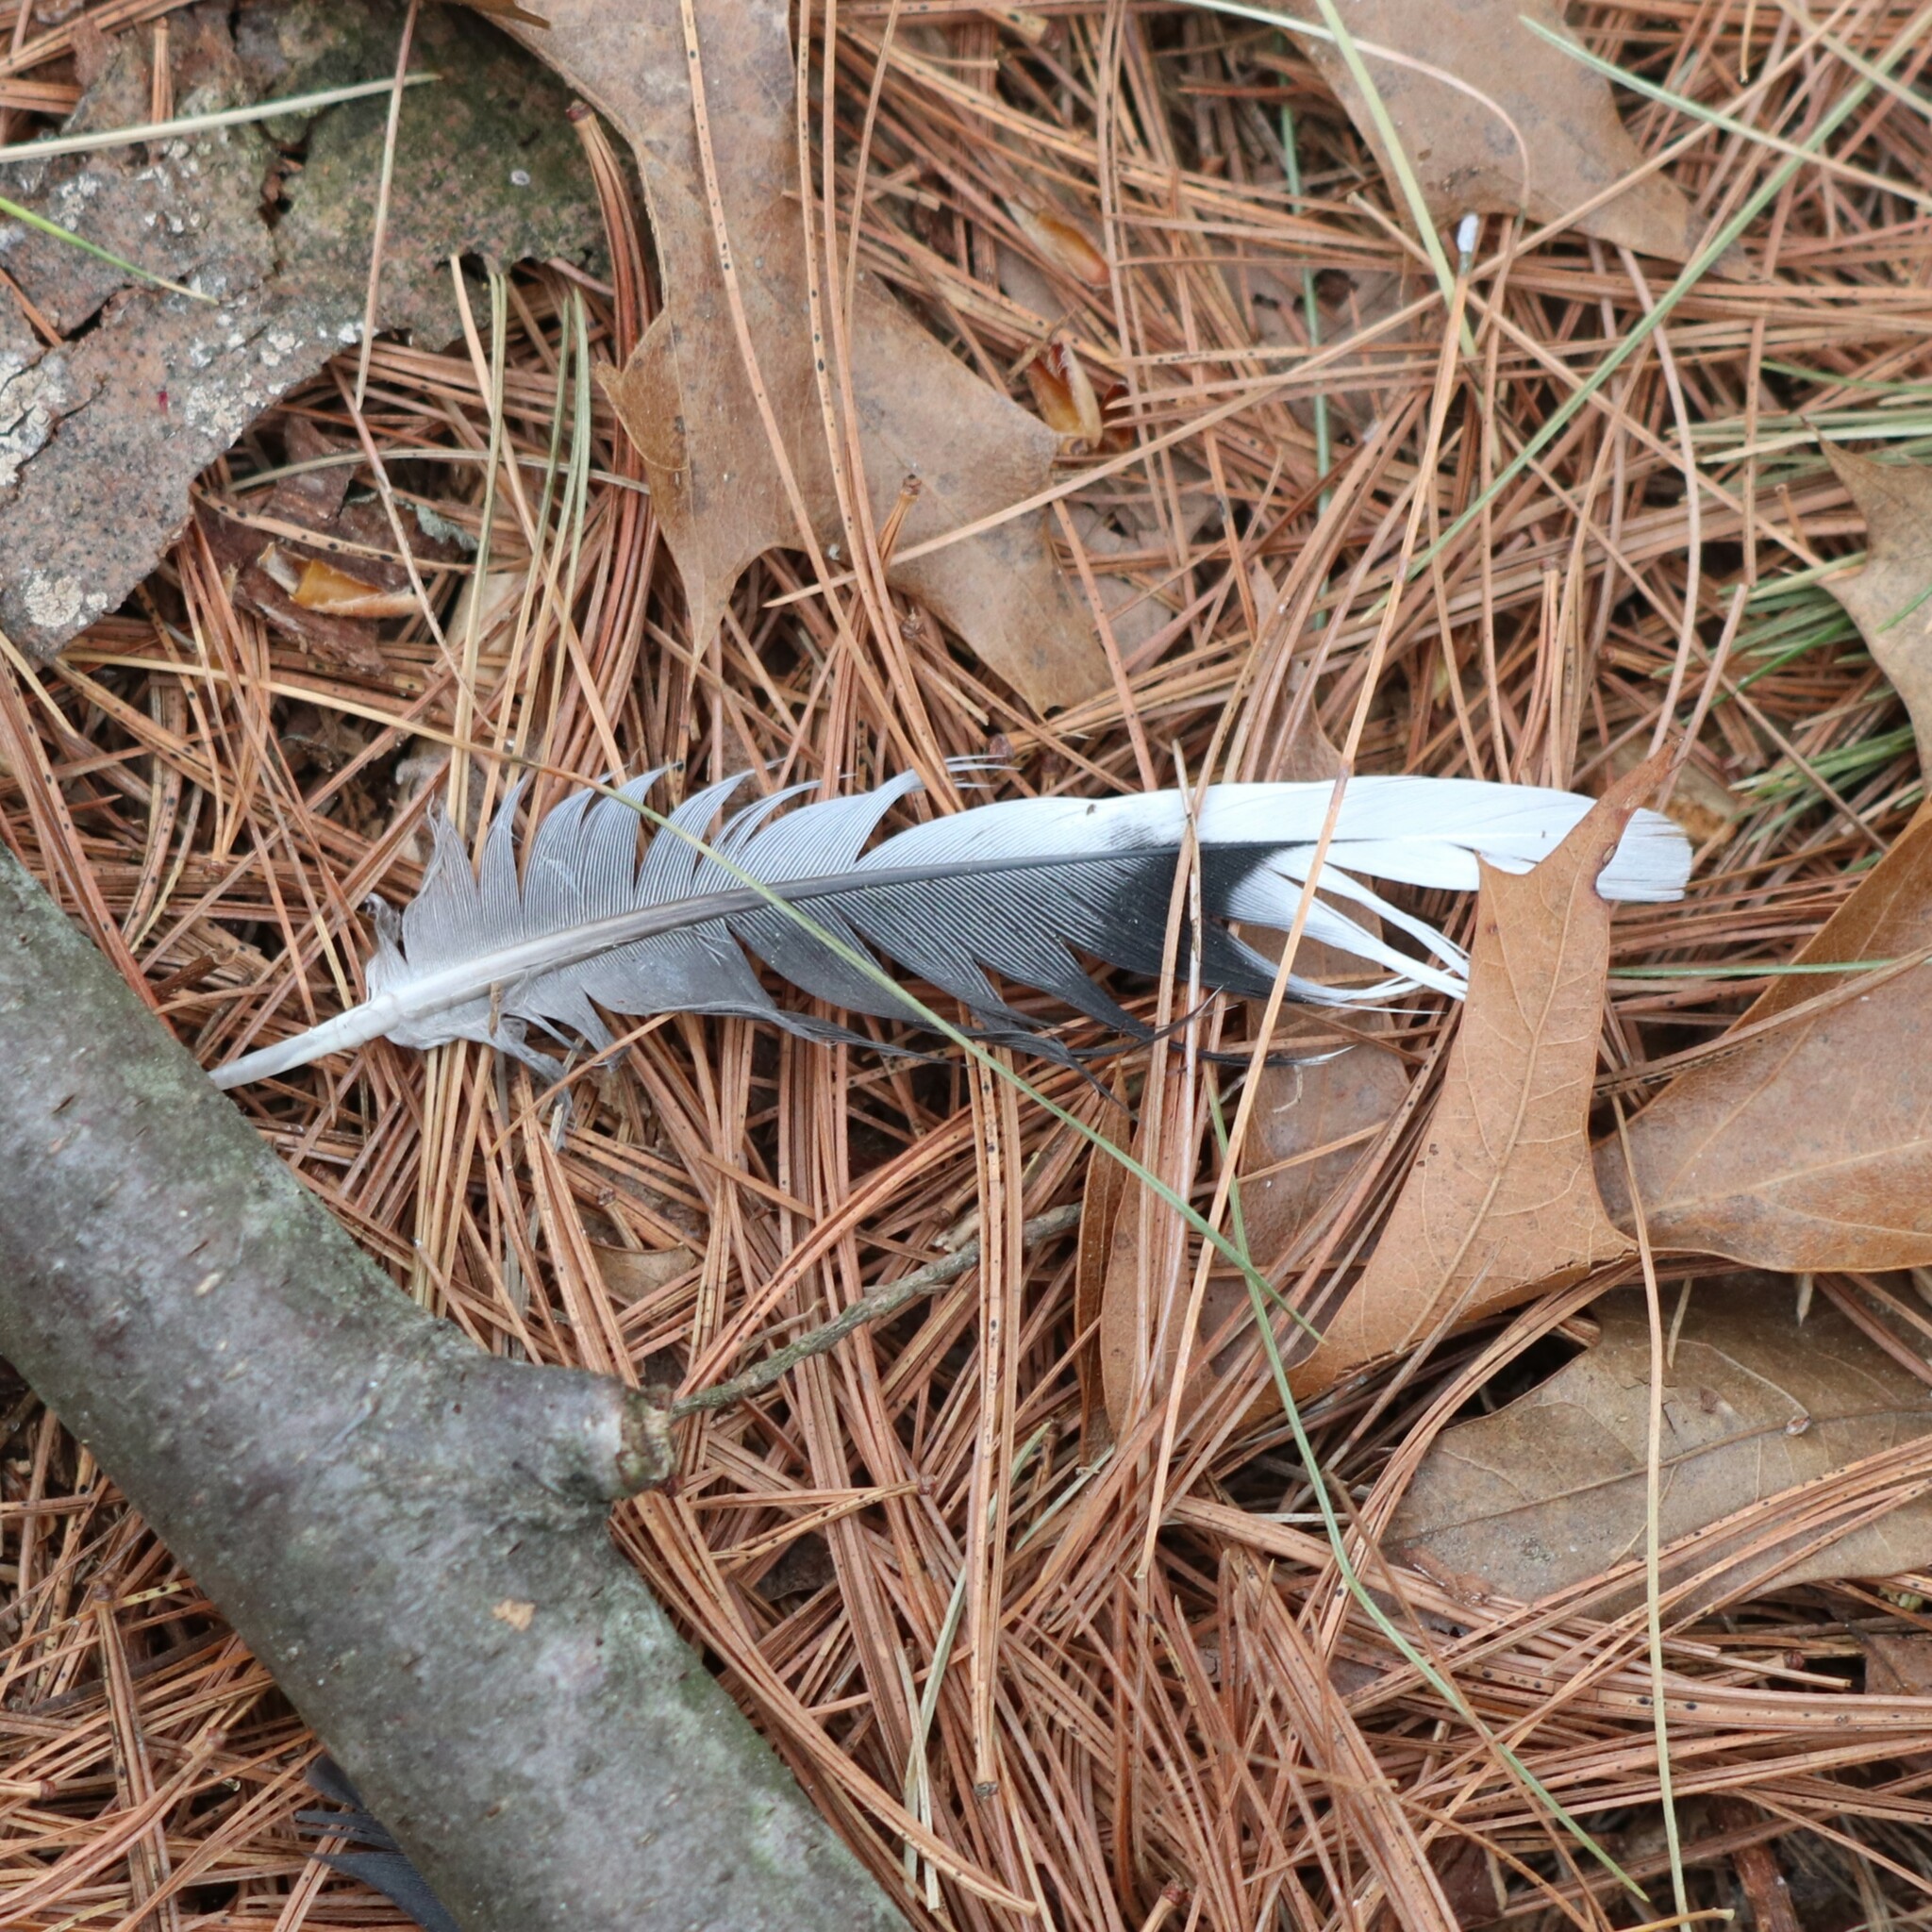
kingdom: Animalia
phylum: Chordata
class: Aves
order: Columbiformes
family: Columbidae
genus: Zenaida
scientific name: Zenaida macroura
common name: Mourning dove
